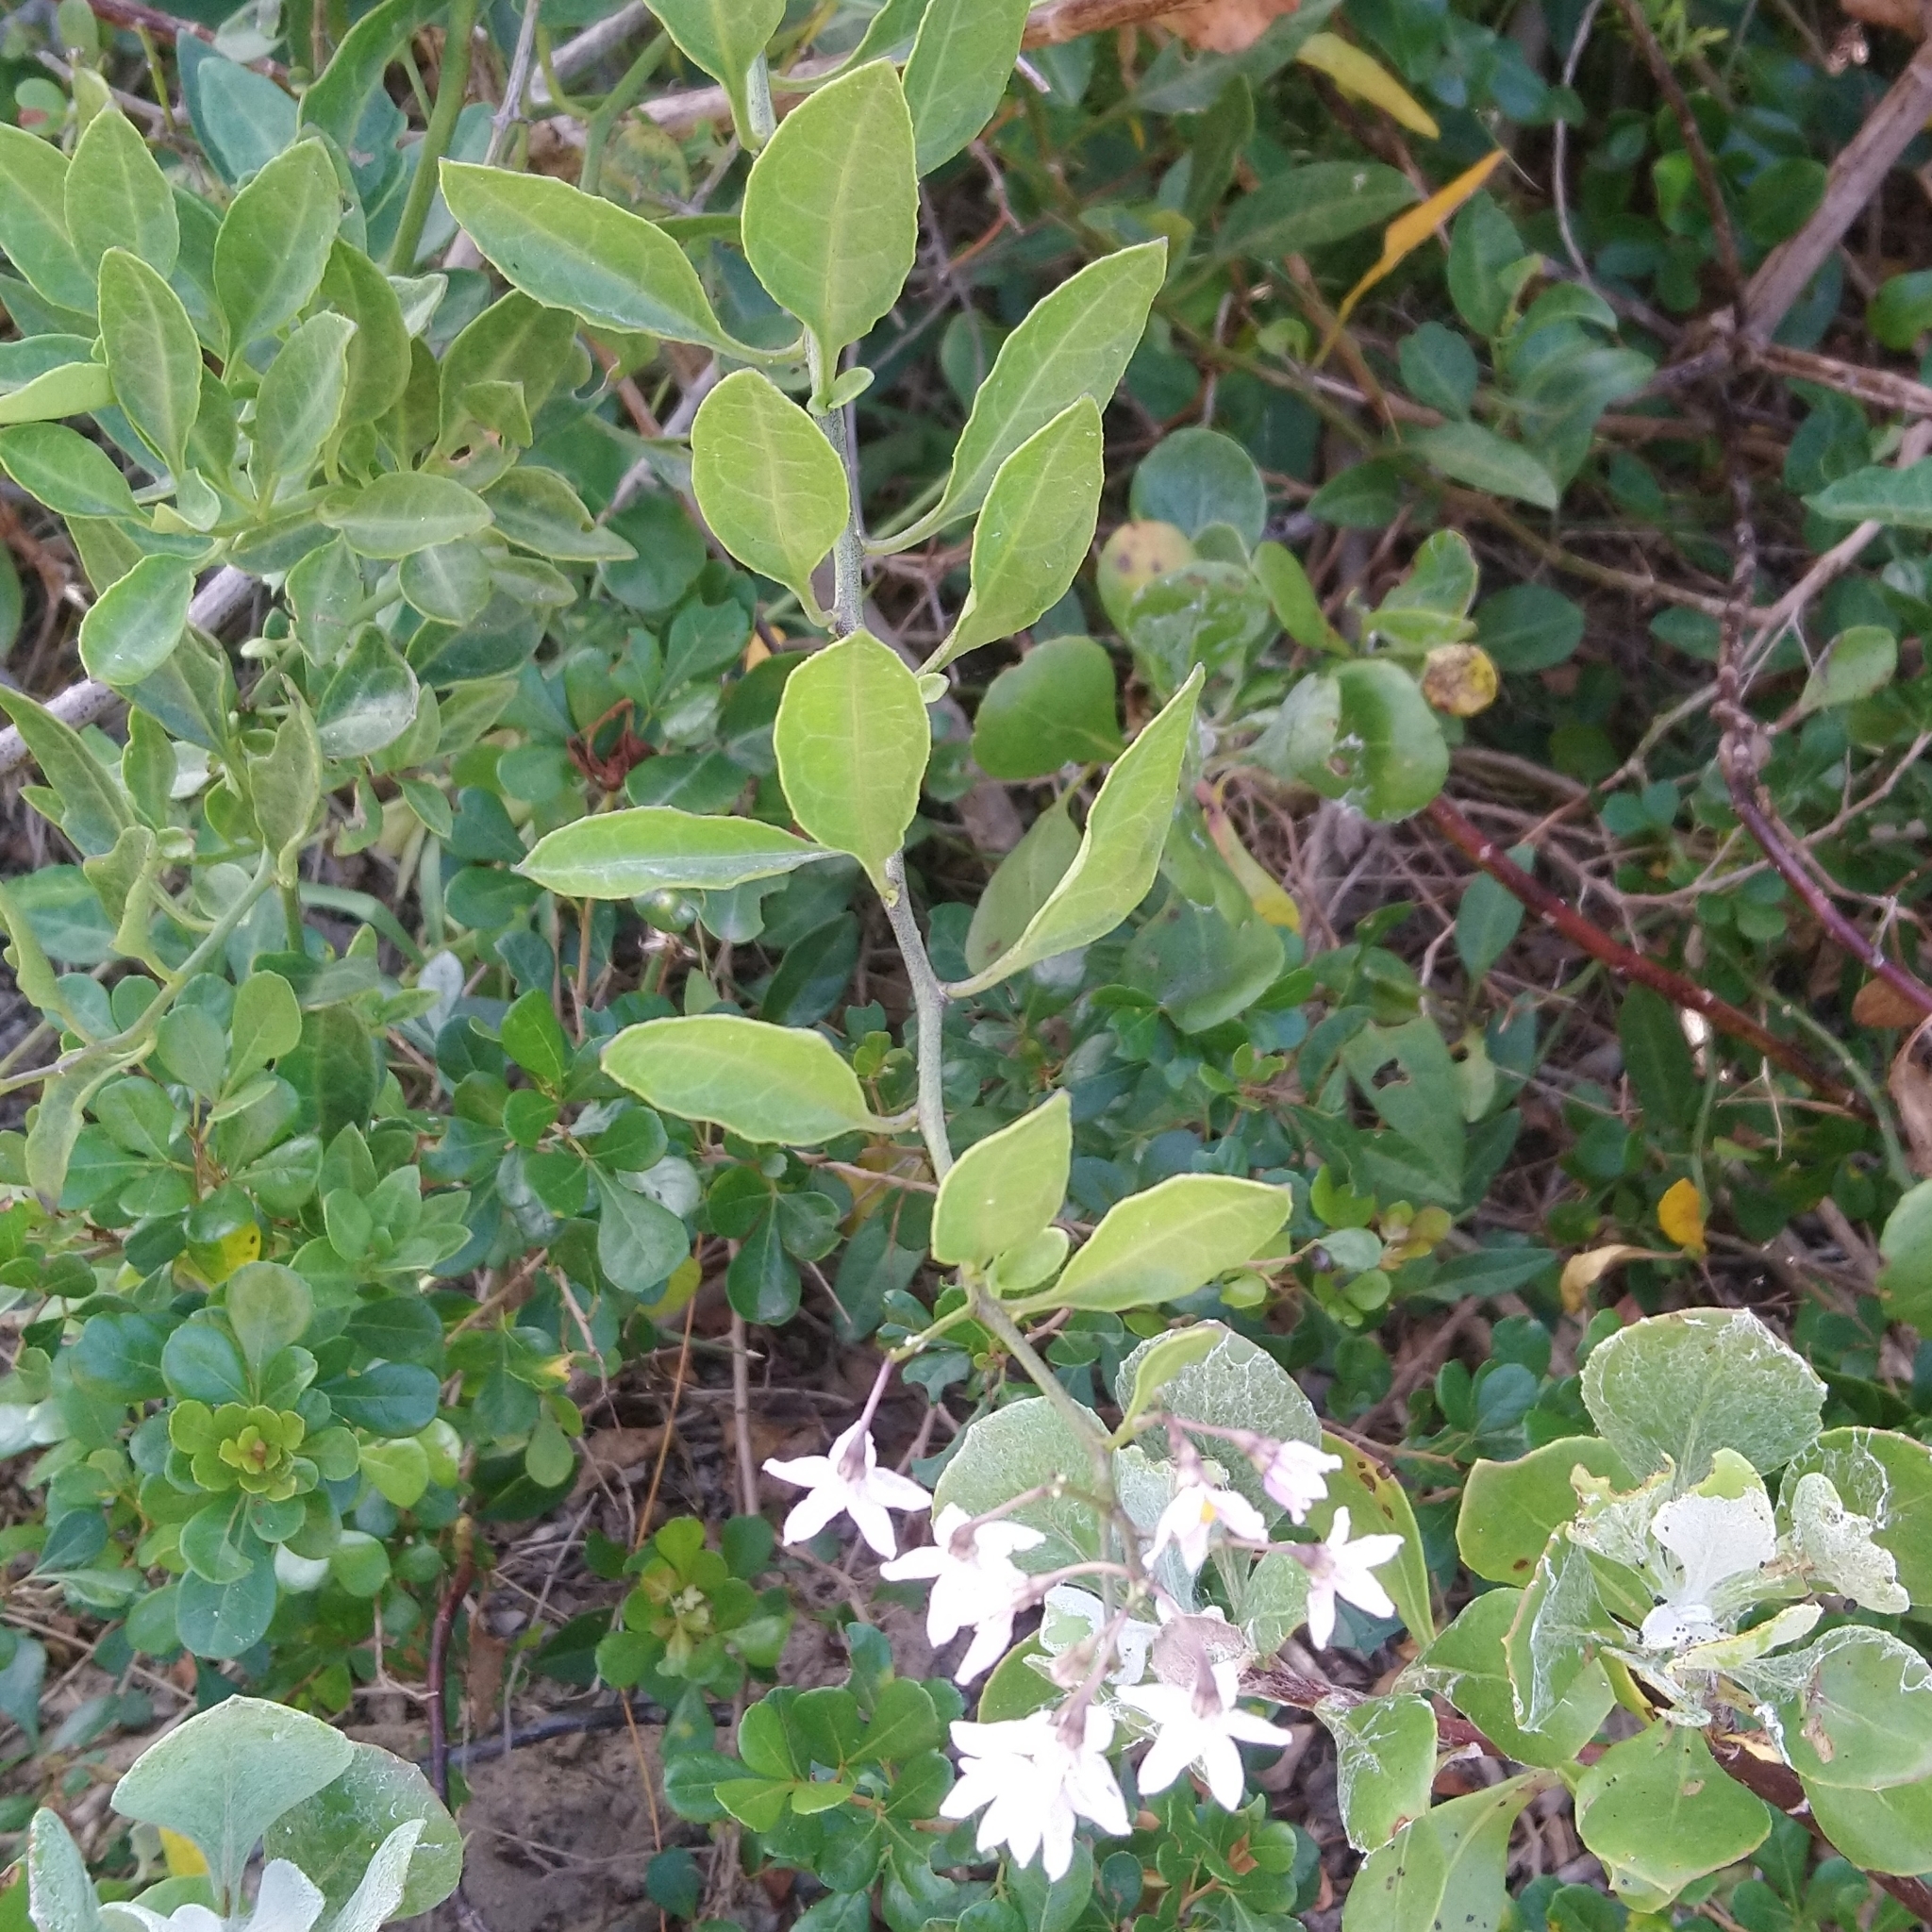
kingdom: Plantae
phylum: Tracheophyta
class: Magnoliopsida
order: Solanales
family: Solanaceae
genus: Solanum
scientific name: Solanum africanum
